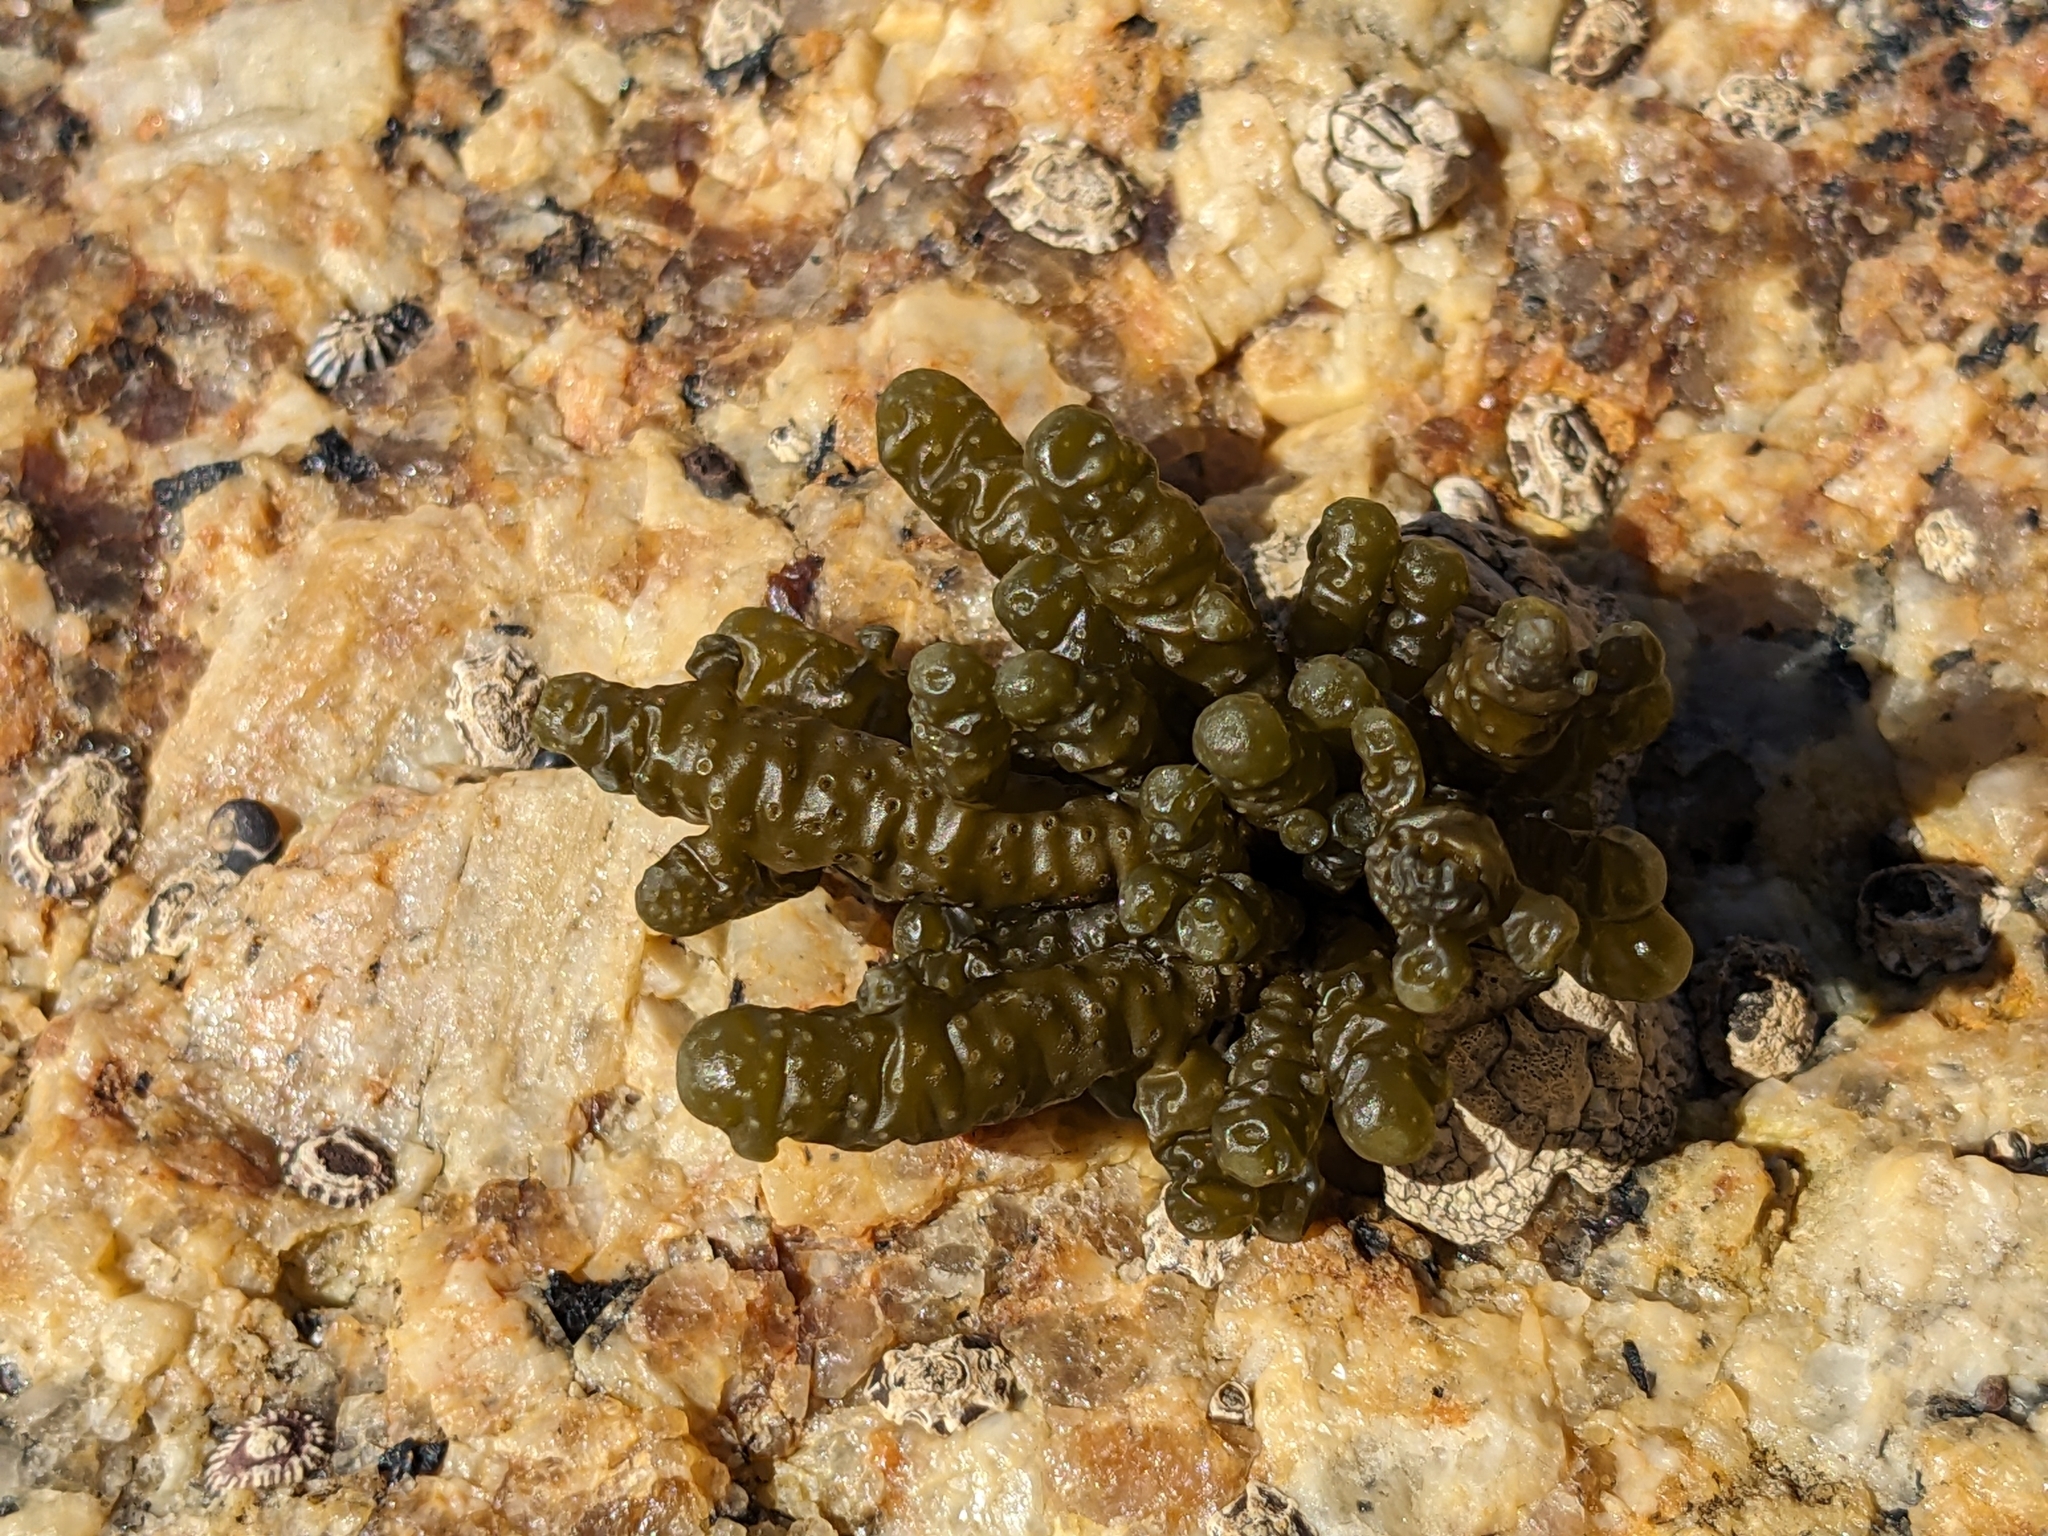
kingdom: Chromista
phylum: Ochrophyta
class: Phaeophyceae
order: Scytothamnales
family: Splachnidiaceae
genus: Splachnidium
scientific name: Splachnidium rugosum
